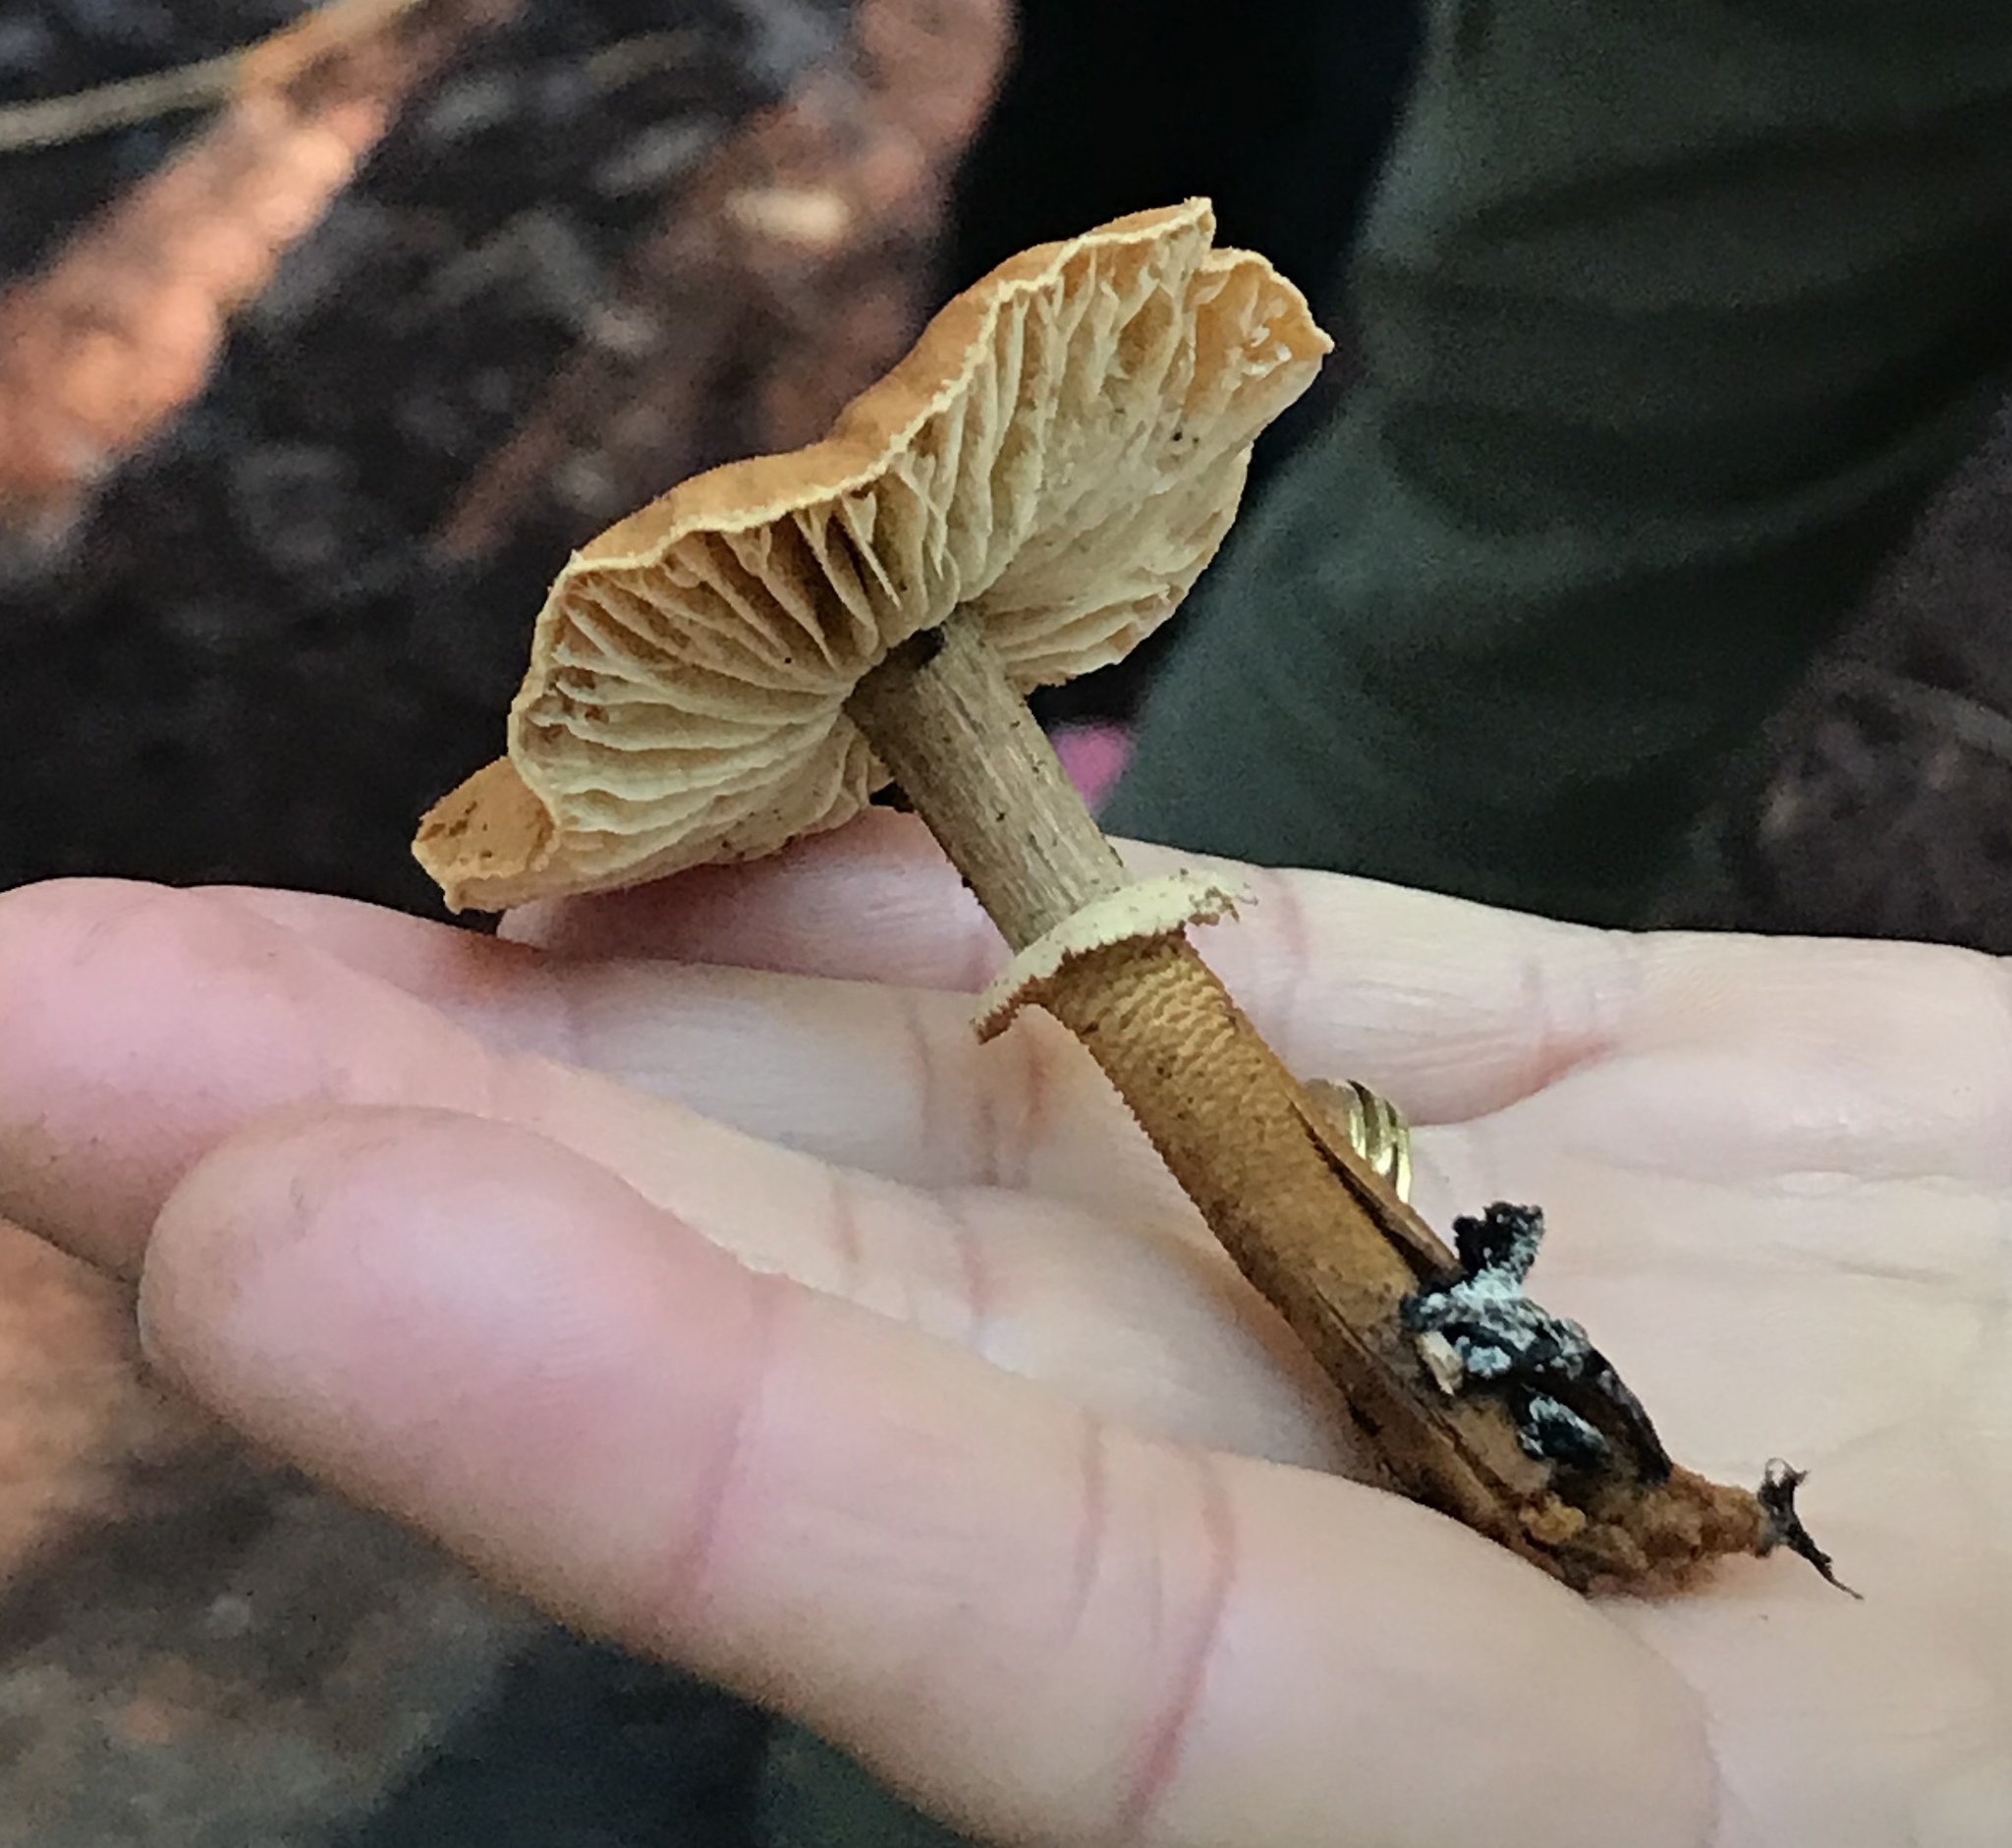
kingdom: Fungi
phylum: Basidiomycota
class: Agaricomycetes
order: Agaricales
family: Tricholomataceae
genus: Cystoderma
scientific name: Cystoderma fallax
